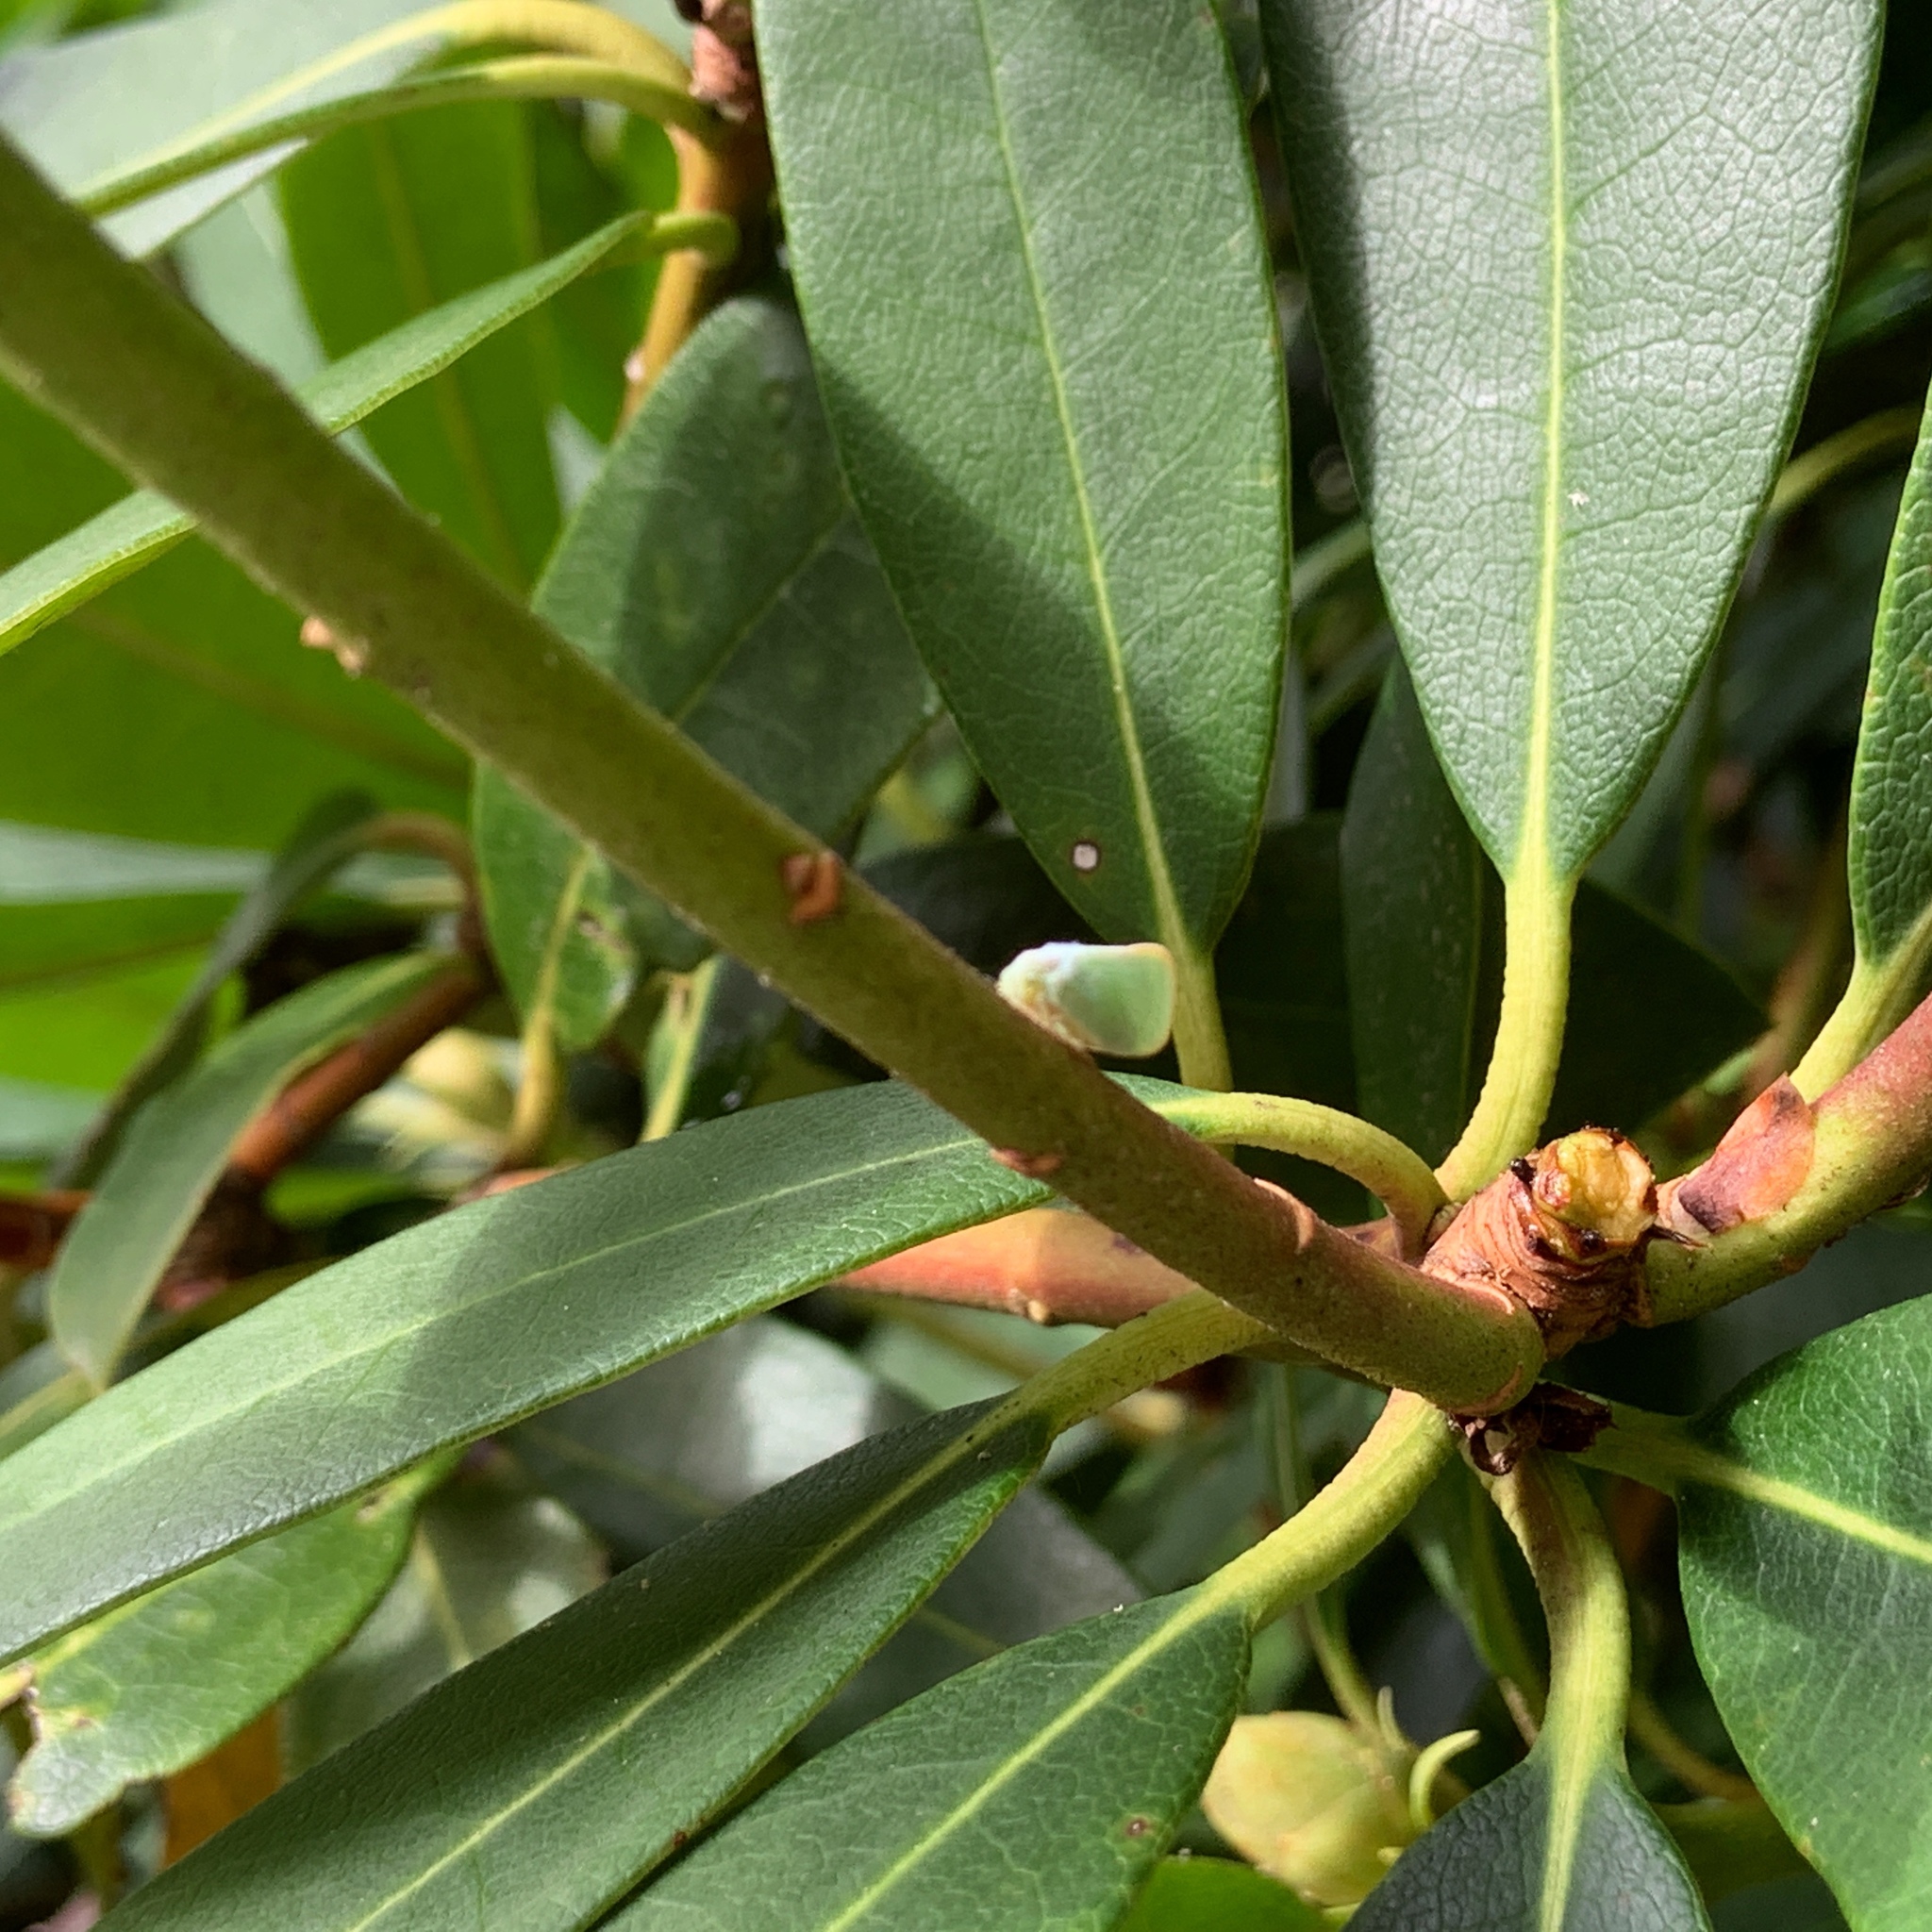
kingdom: Animalia
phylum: Arthropoda
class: Insecta
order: Hemiptera
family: Flatidae
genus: Ormenoides
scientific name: Ormenoides venusta
